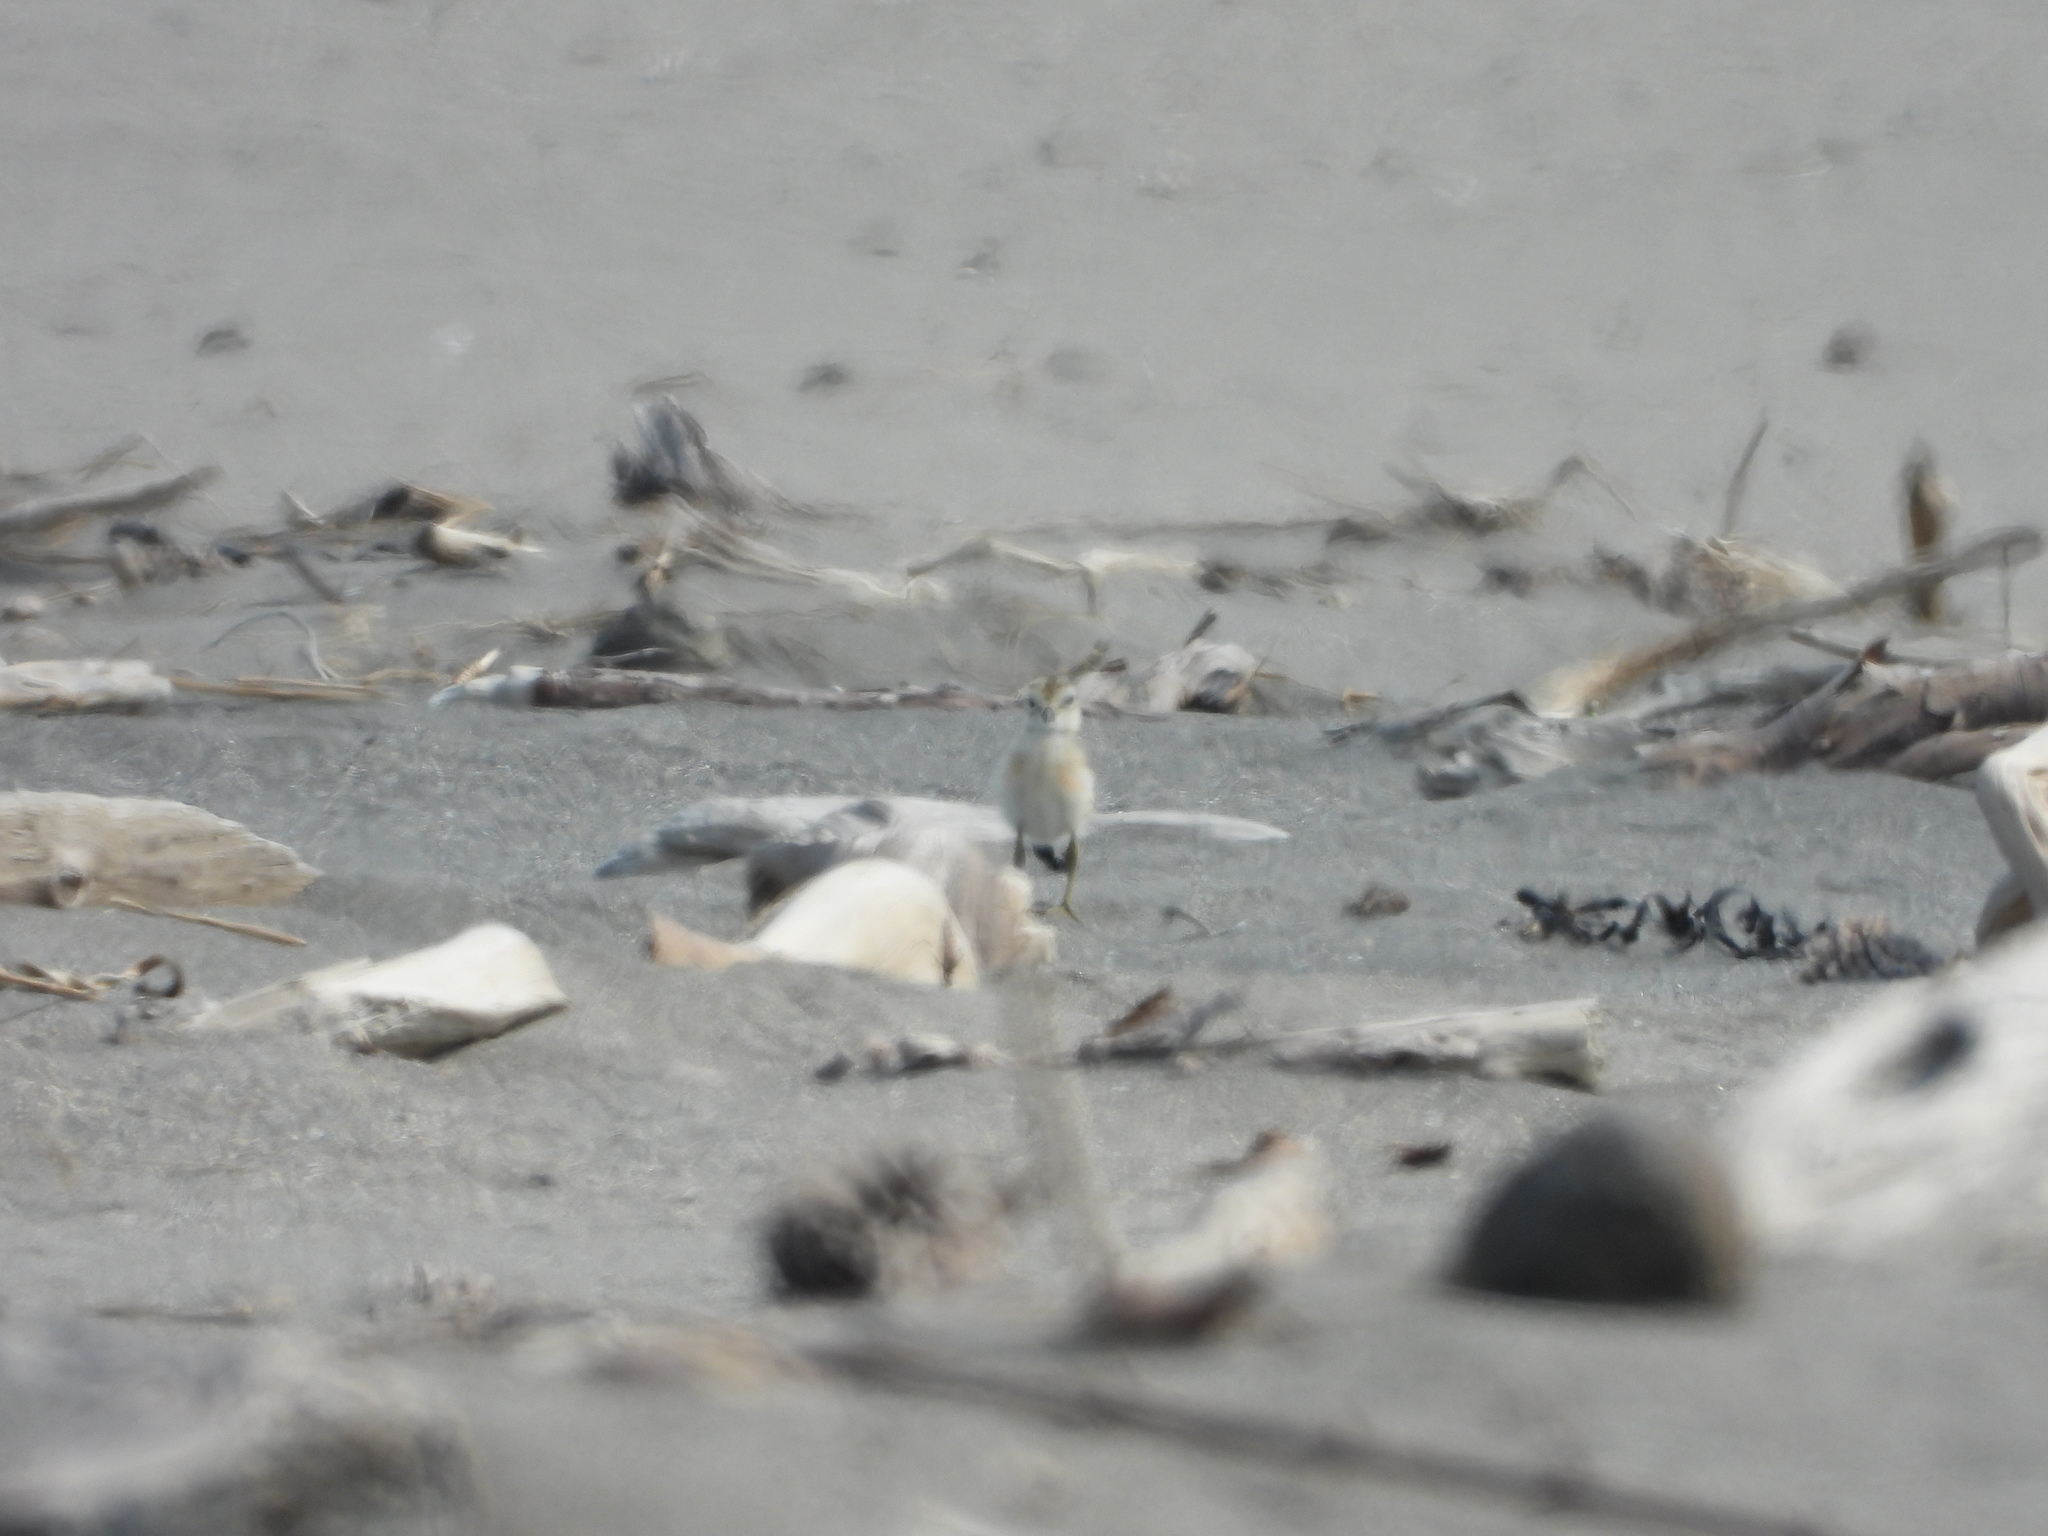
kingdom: Animalia
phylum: Chordata
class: Aves
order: Charadriiformes
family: Charadriidae
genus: Anarhynchus
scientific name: Anarhynchus
